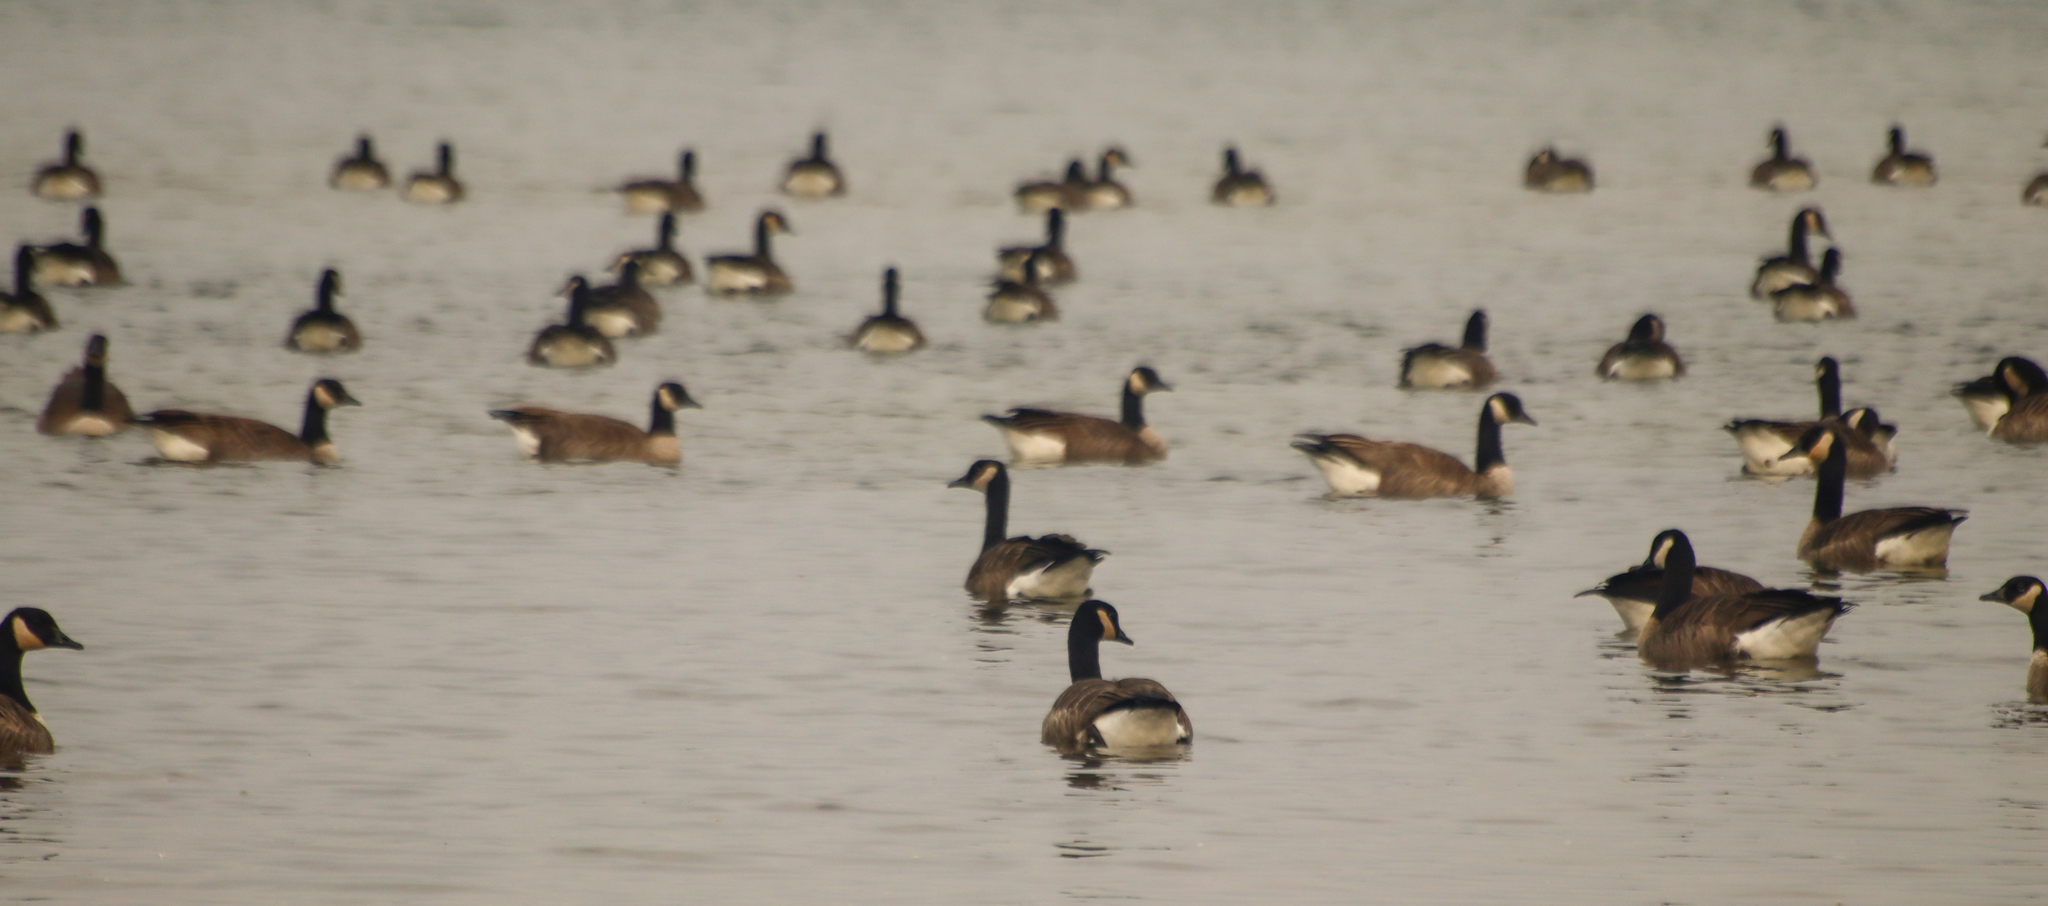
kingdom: Animalia
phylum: Chordata
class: Aves
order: Anseriformes
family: Anatidae
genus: Branta
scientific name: Branta canadensis
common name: Canada goose
